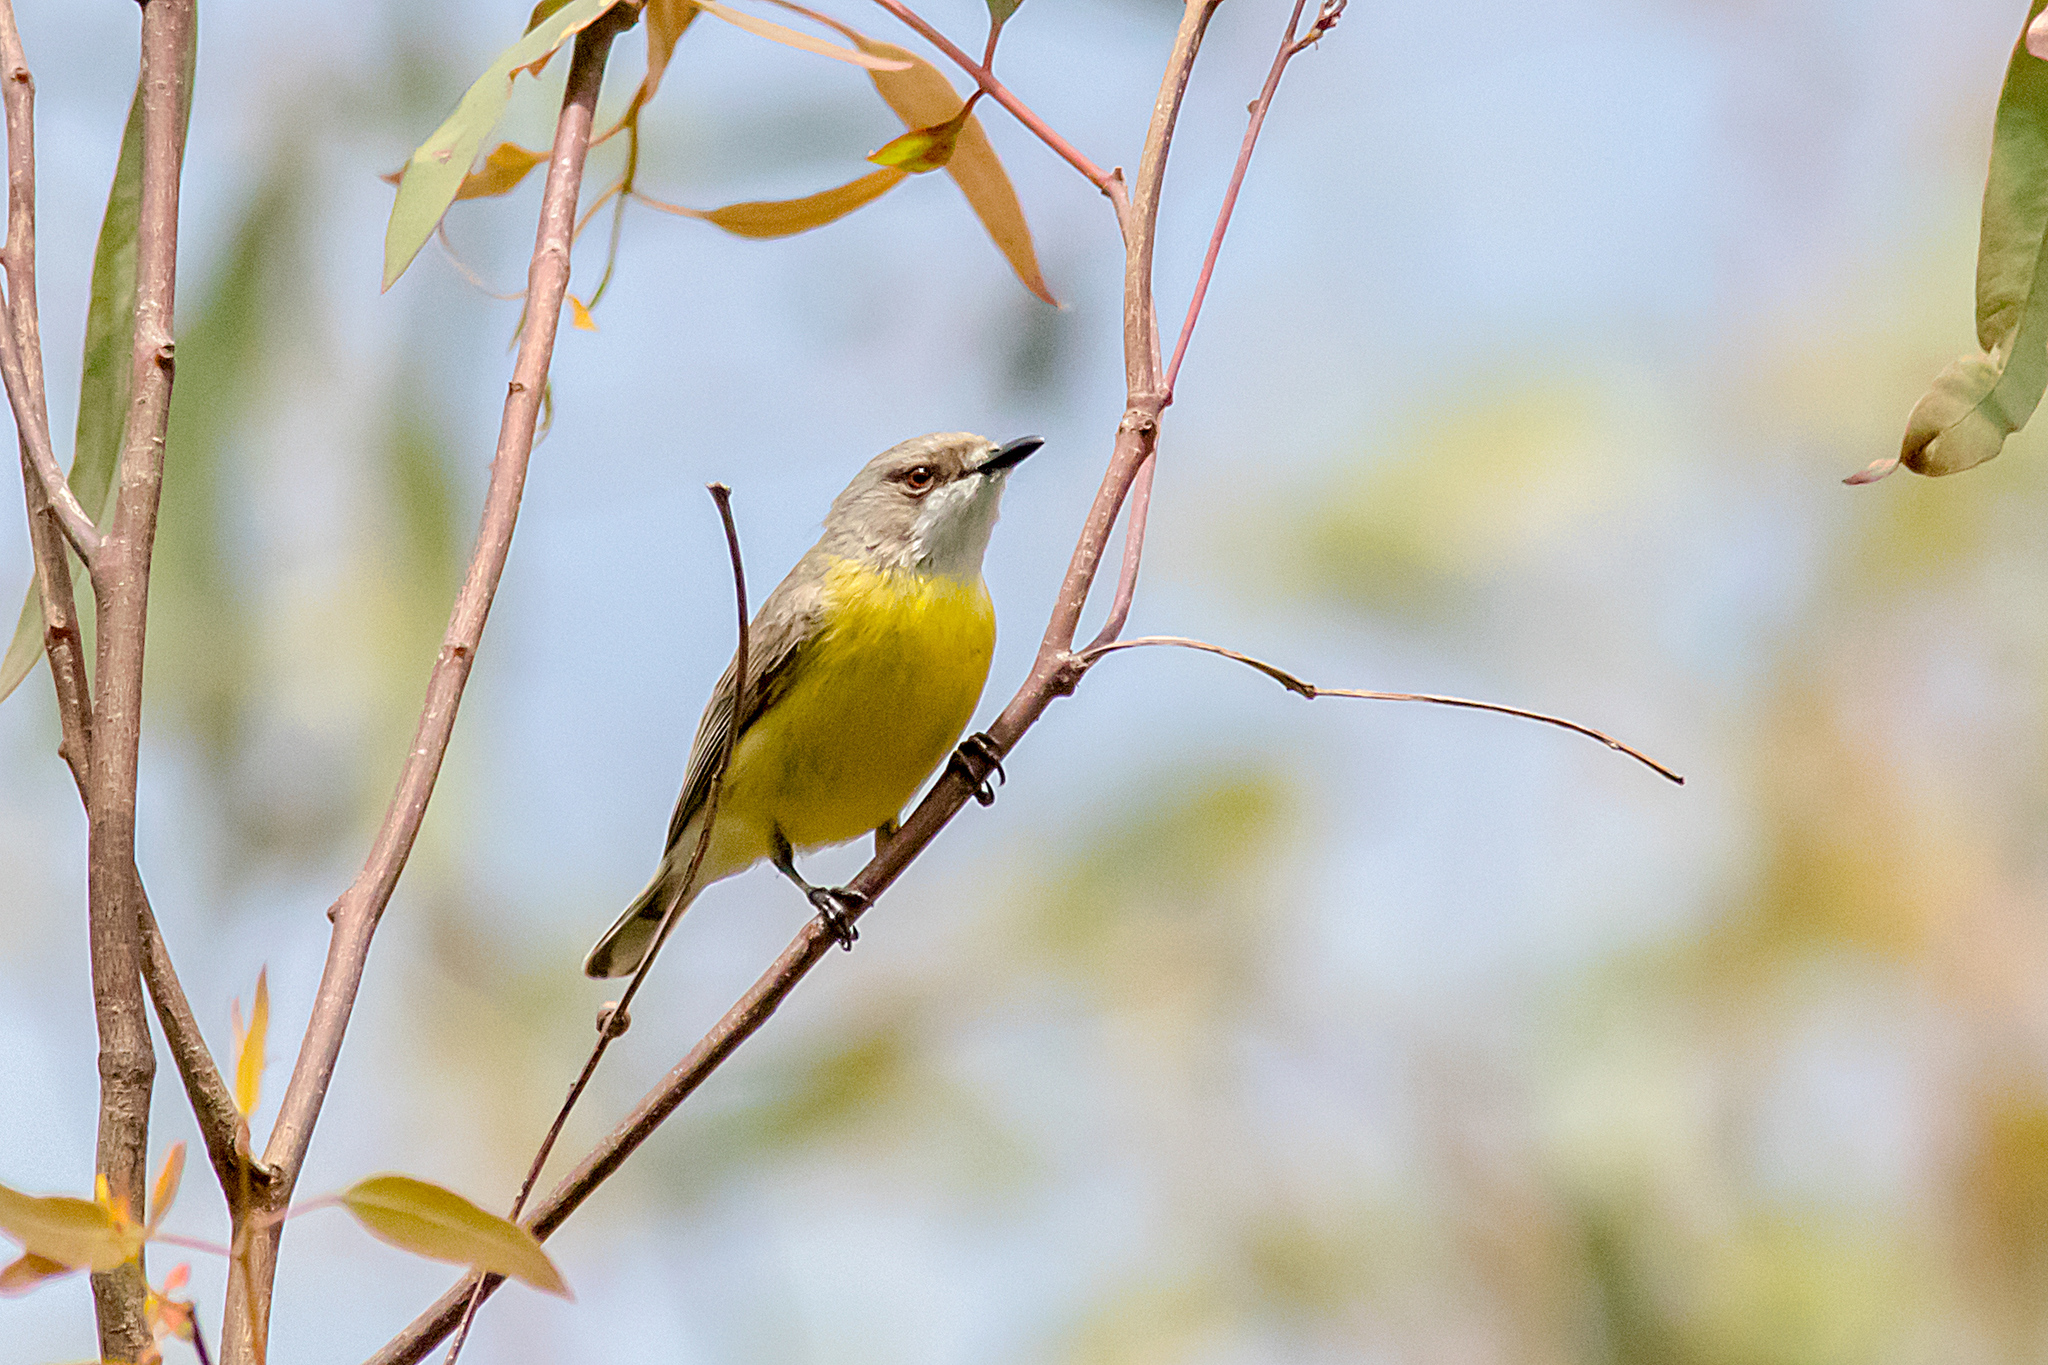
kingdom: Animalia
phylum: Chordata
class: Aves
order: Passeriformes
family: Acanthizidae
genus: Gerygone
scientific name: Gerygone olivacea
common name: White-throated gerygone
